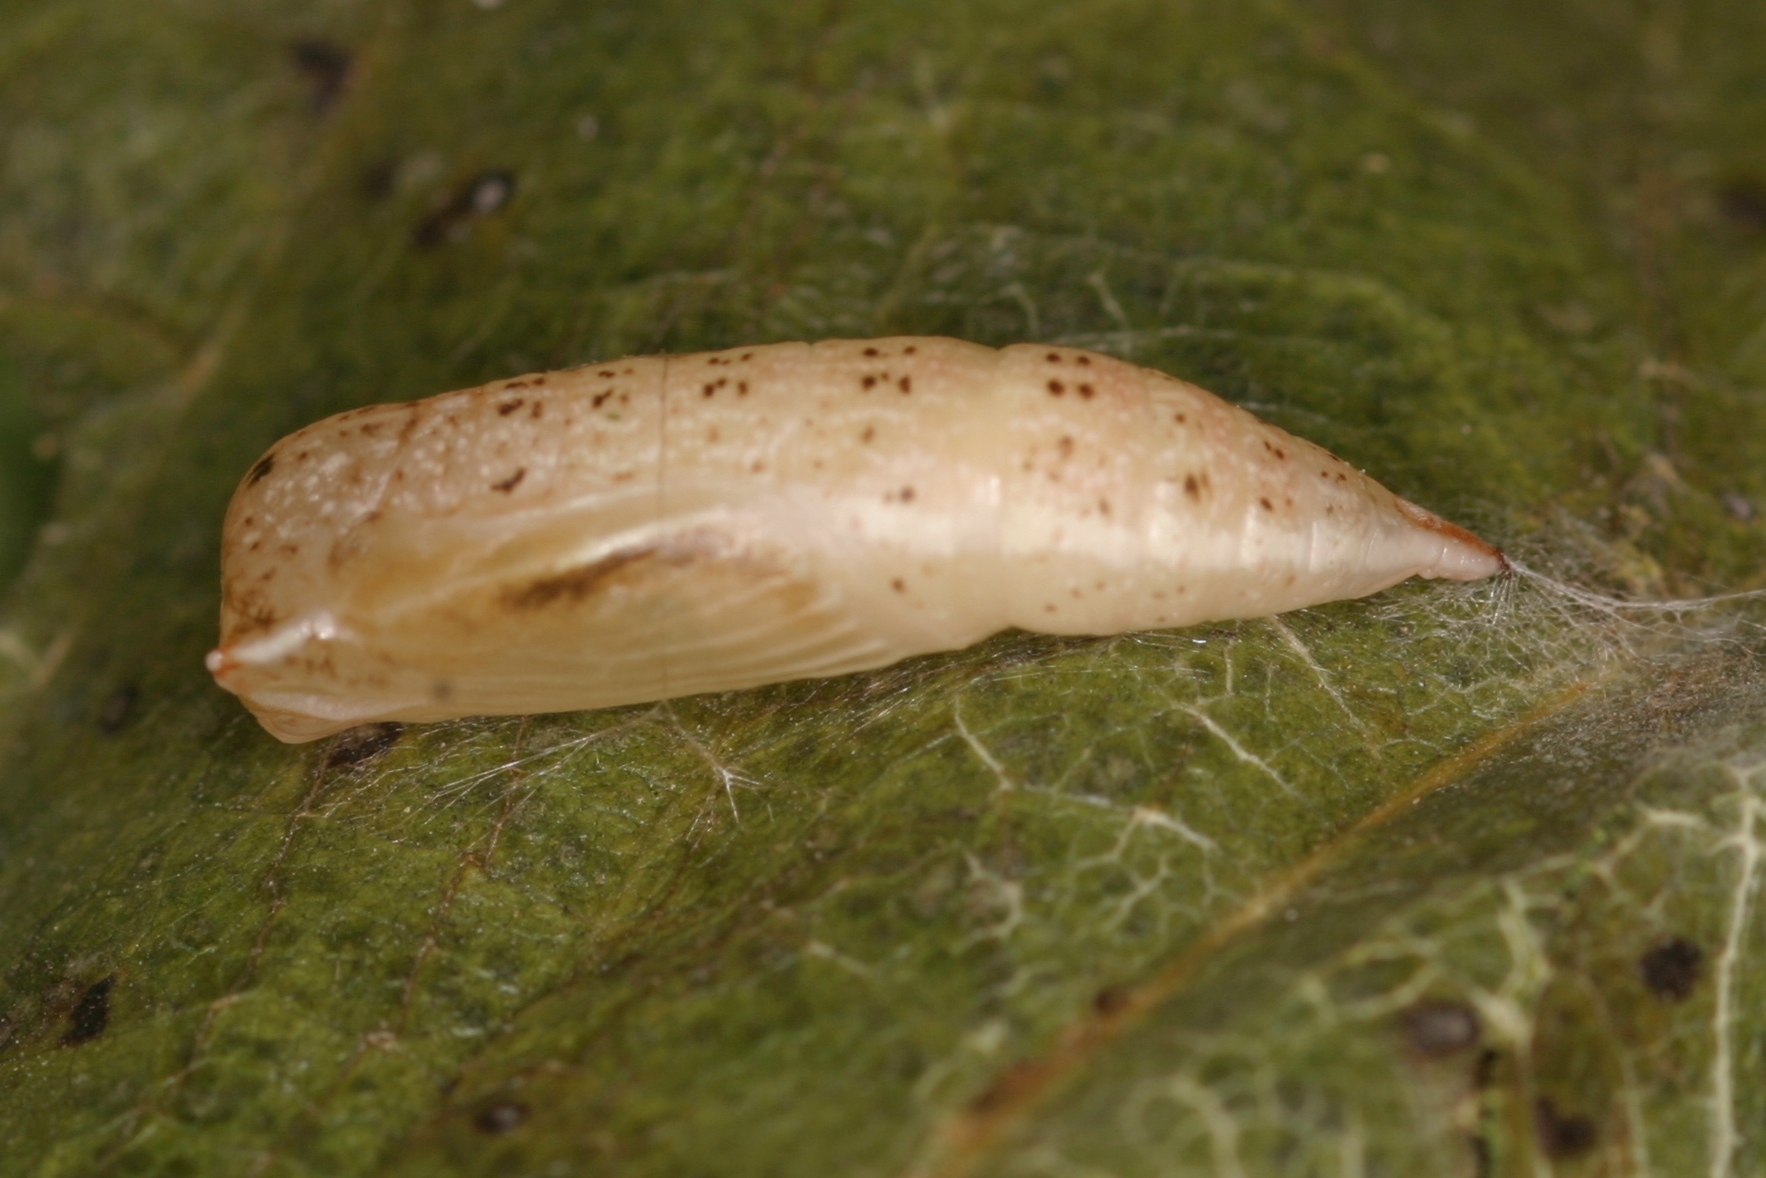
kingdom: Animalia
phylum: Arthropoda
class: Insecta
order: Lepidoptera
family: Geometridae
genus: Cyclophora
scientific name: Cyclophora punctaria
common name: Maiden's blush
